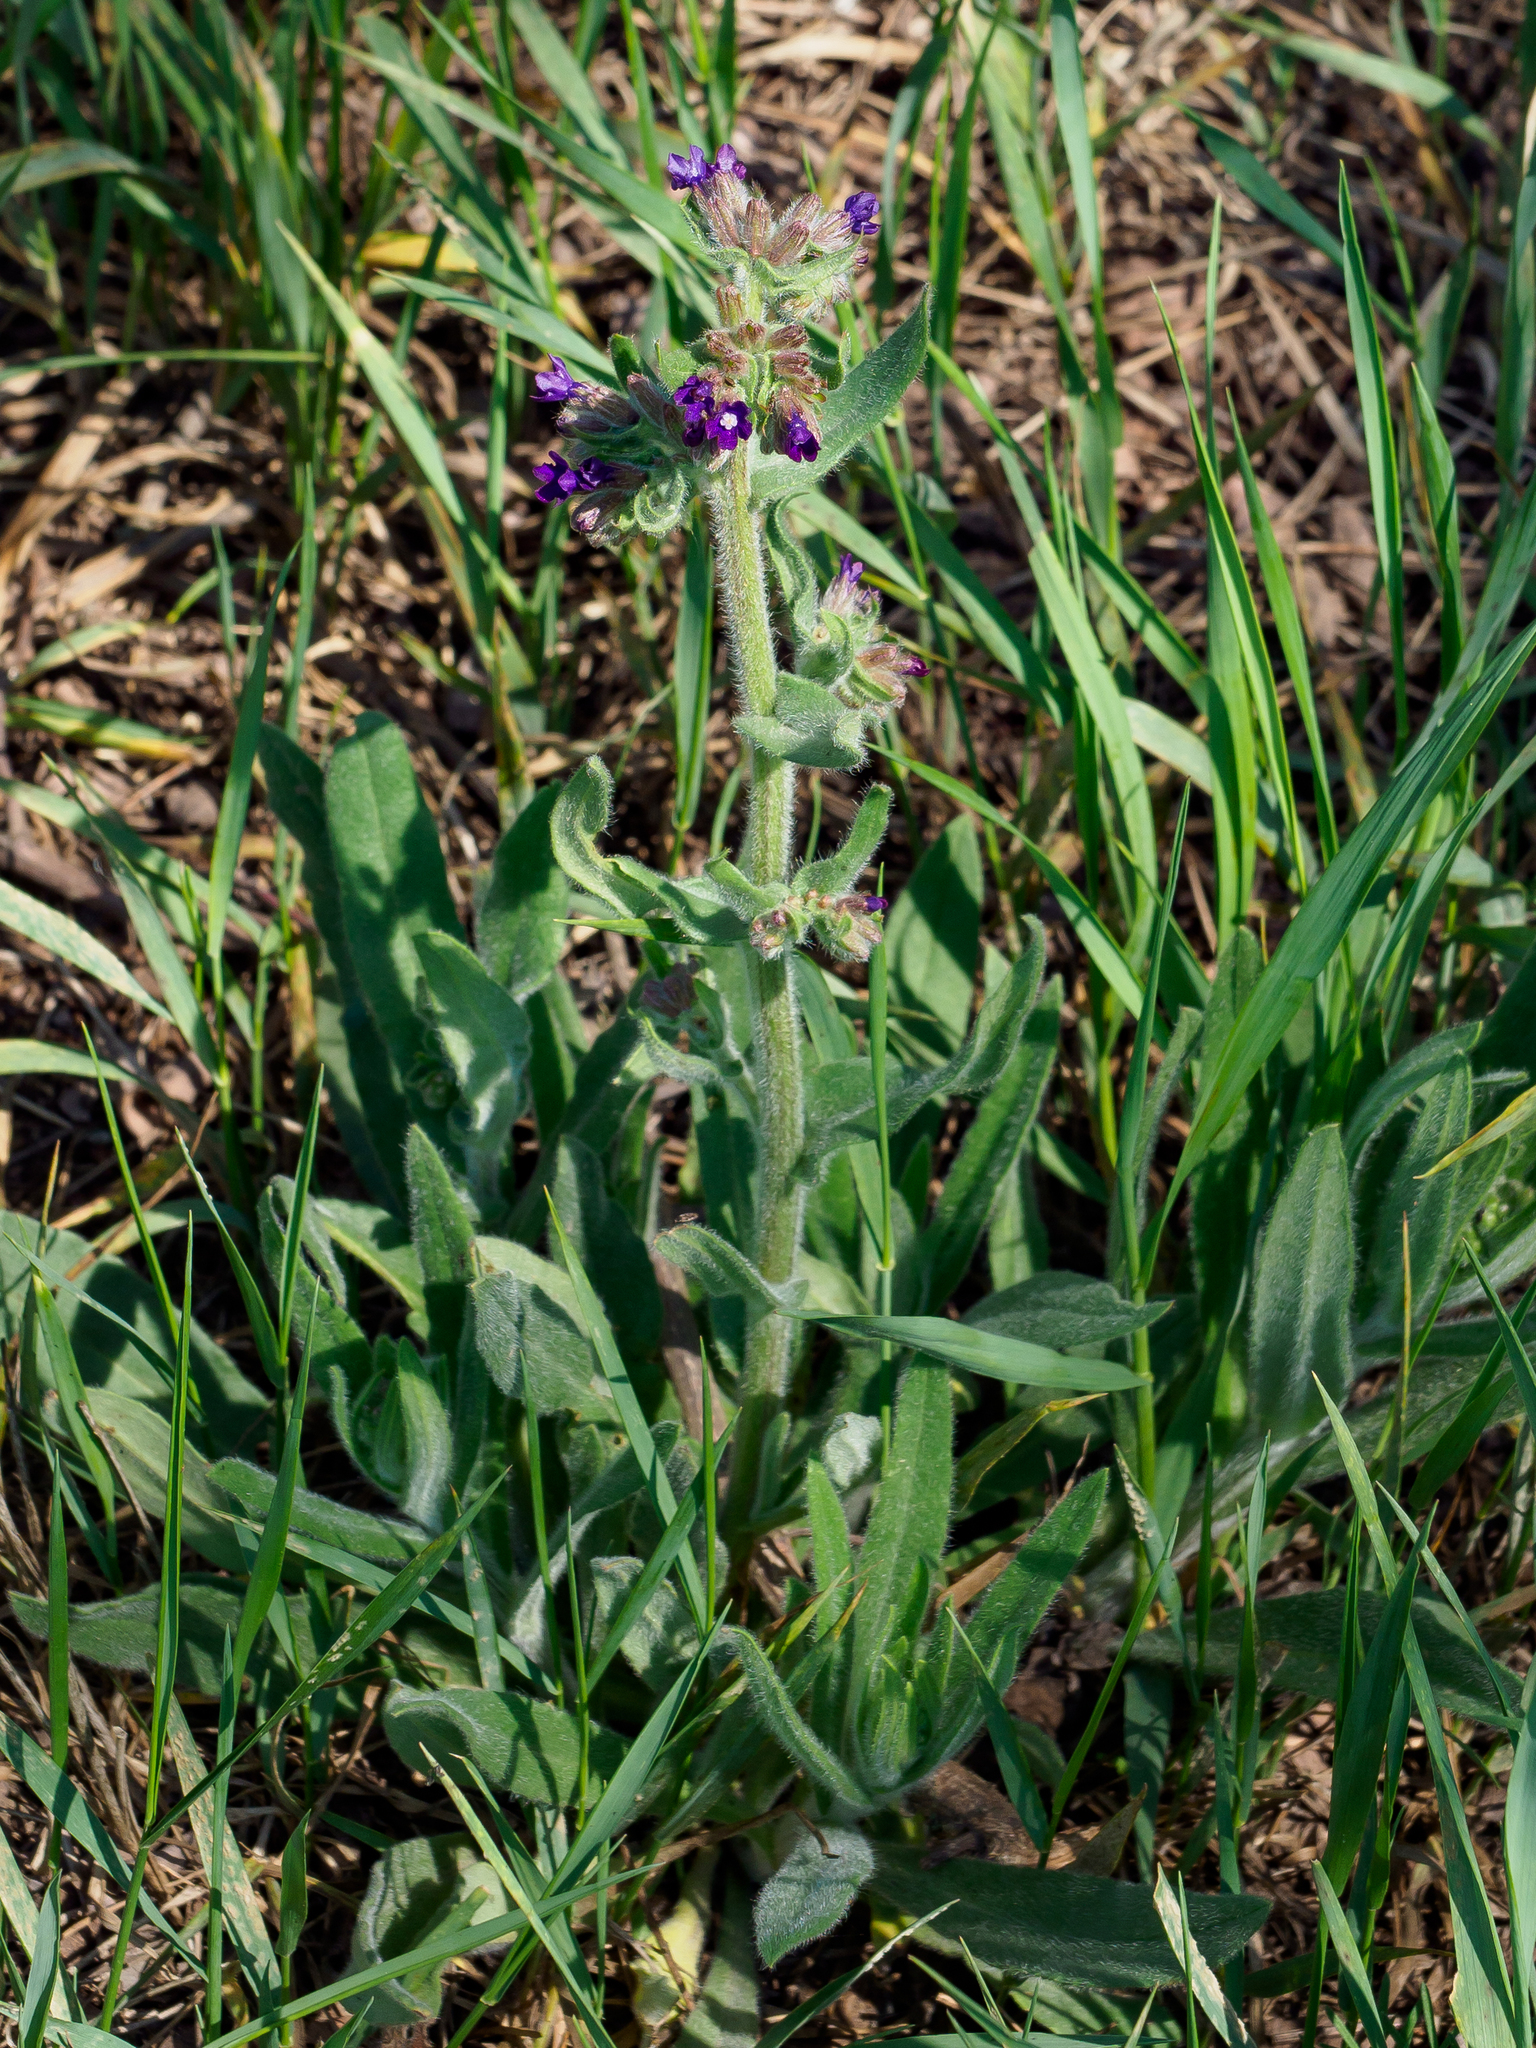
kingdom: Plantae
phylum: Tracheophyta
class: Magnoliopsida
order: Boraginales
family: Boraginaceae
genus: Anchusa
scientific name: Anchusa officinalis
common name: Alkanet
